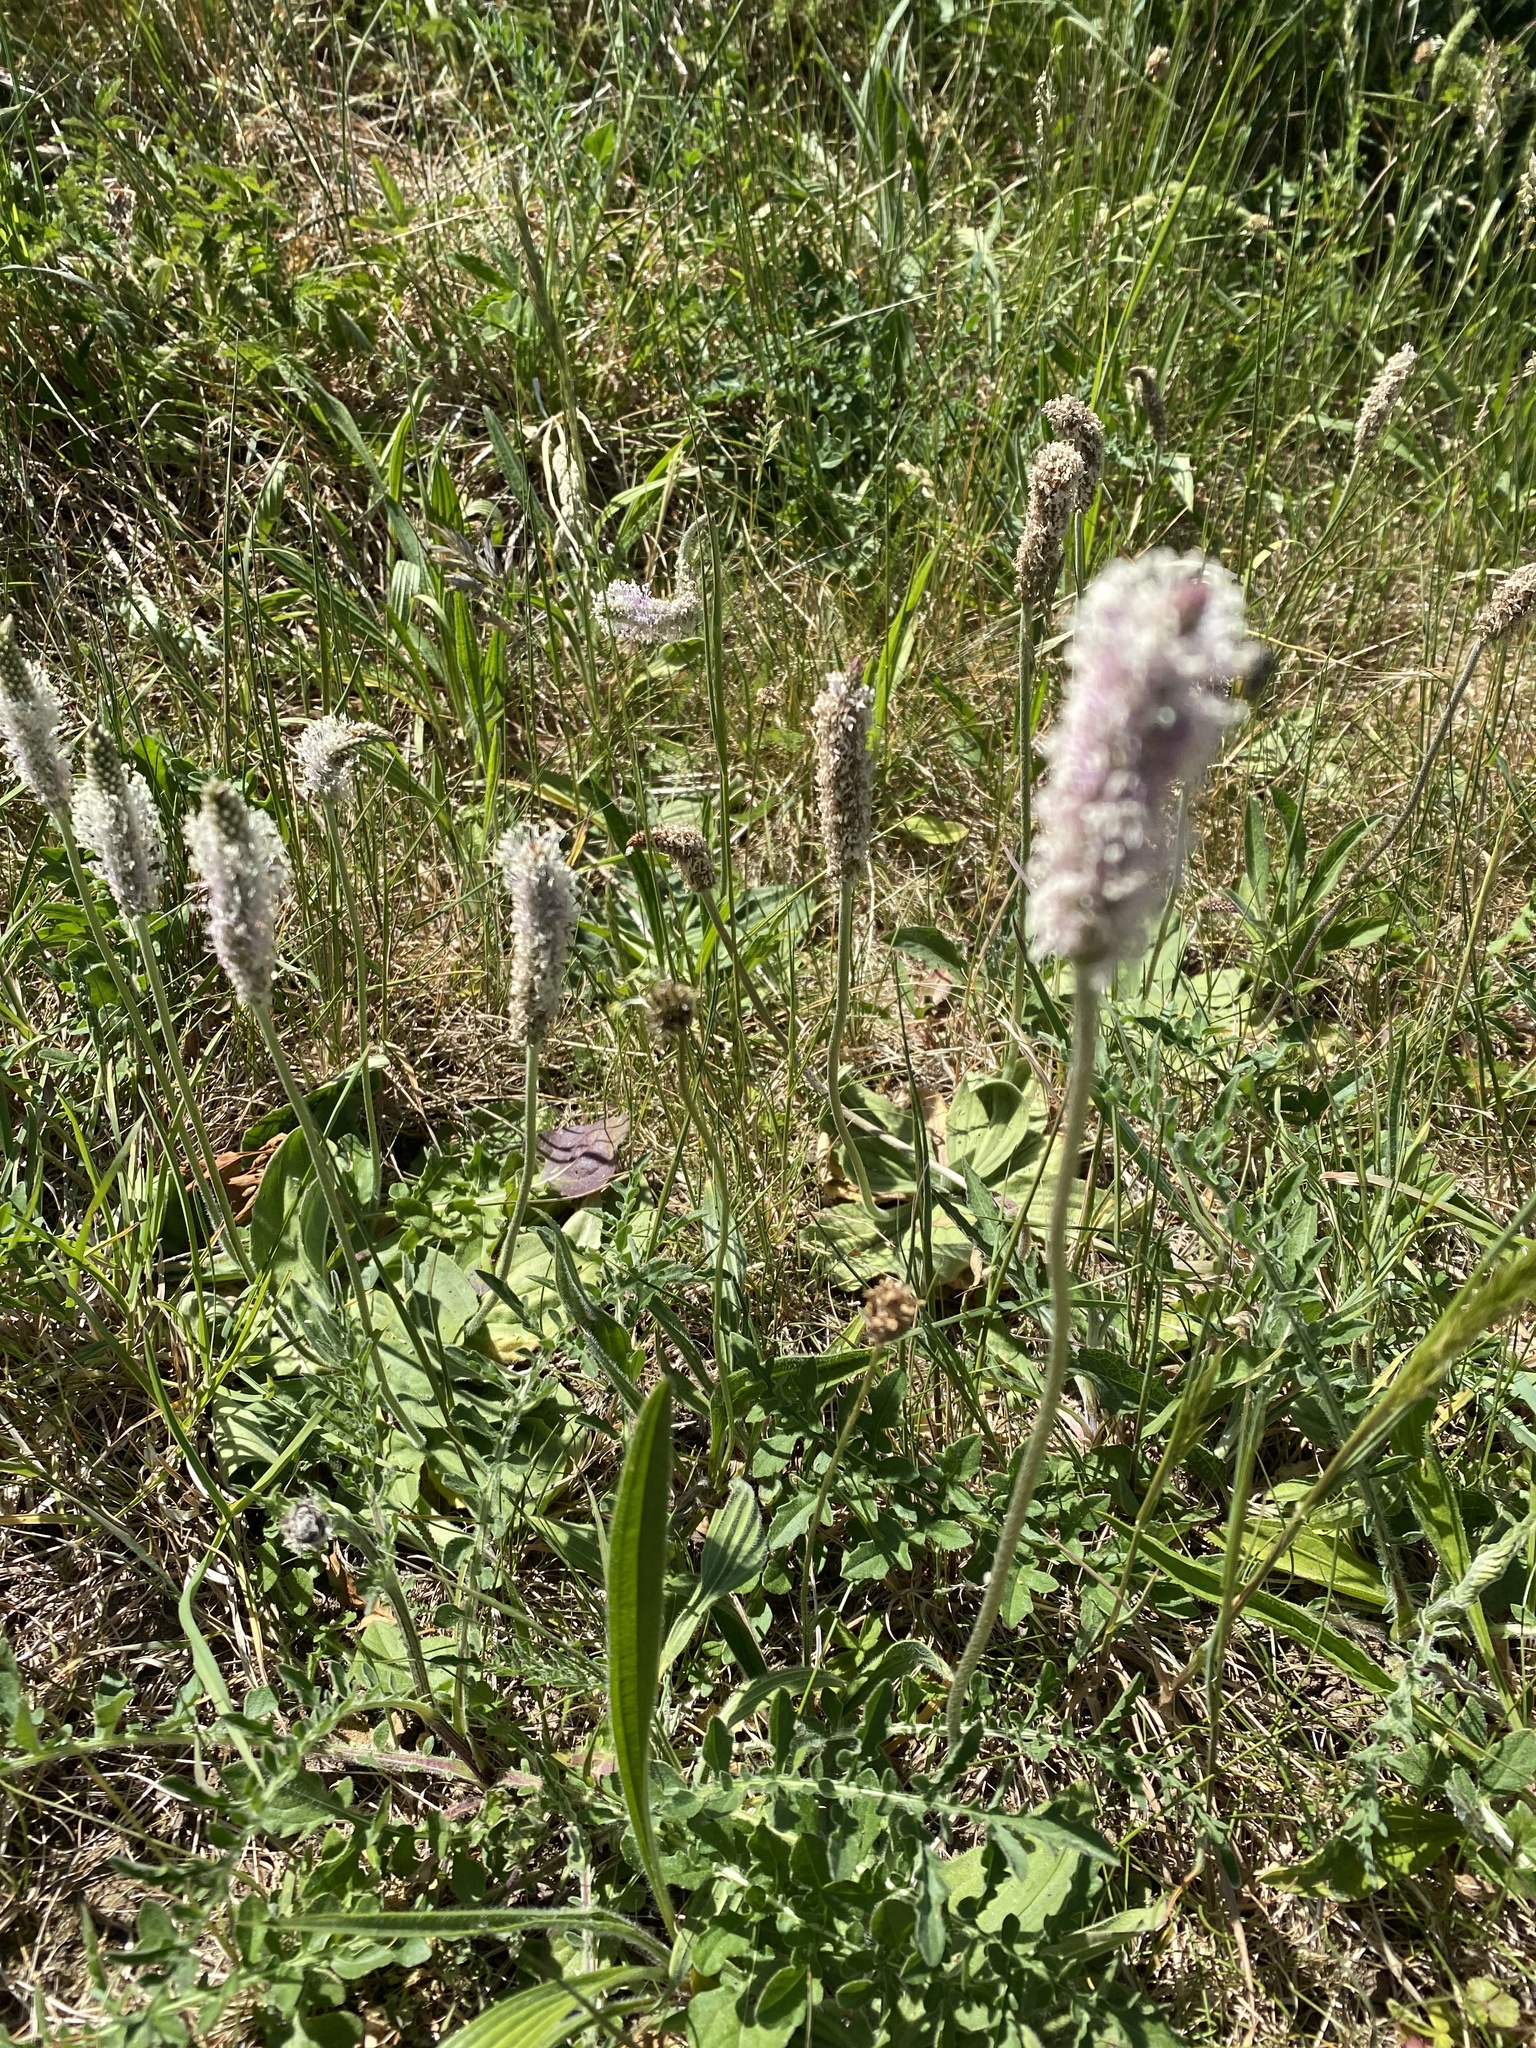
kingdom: Plantae
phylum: Tracheophyta
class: Magnoliopsida
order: Lamiales
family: Plantaginaceae
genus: Plantago
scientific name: Plantago media
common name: Hoary plantain
